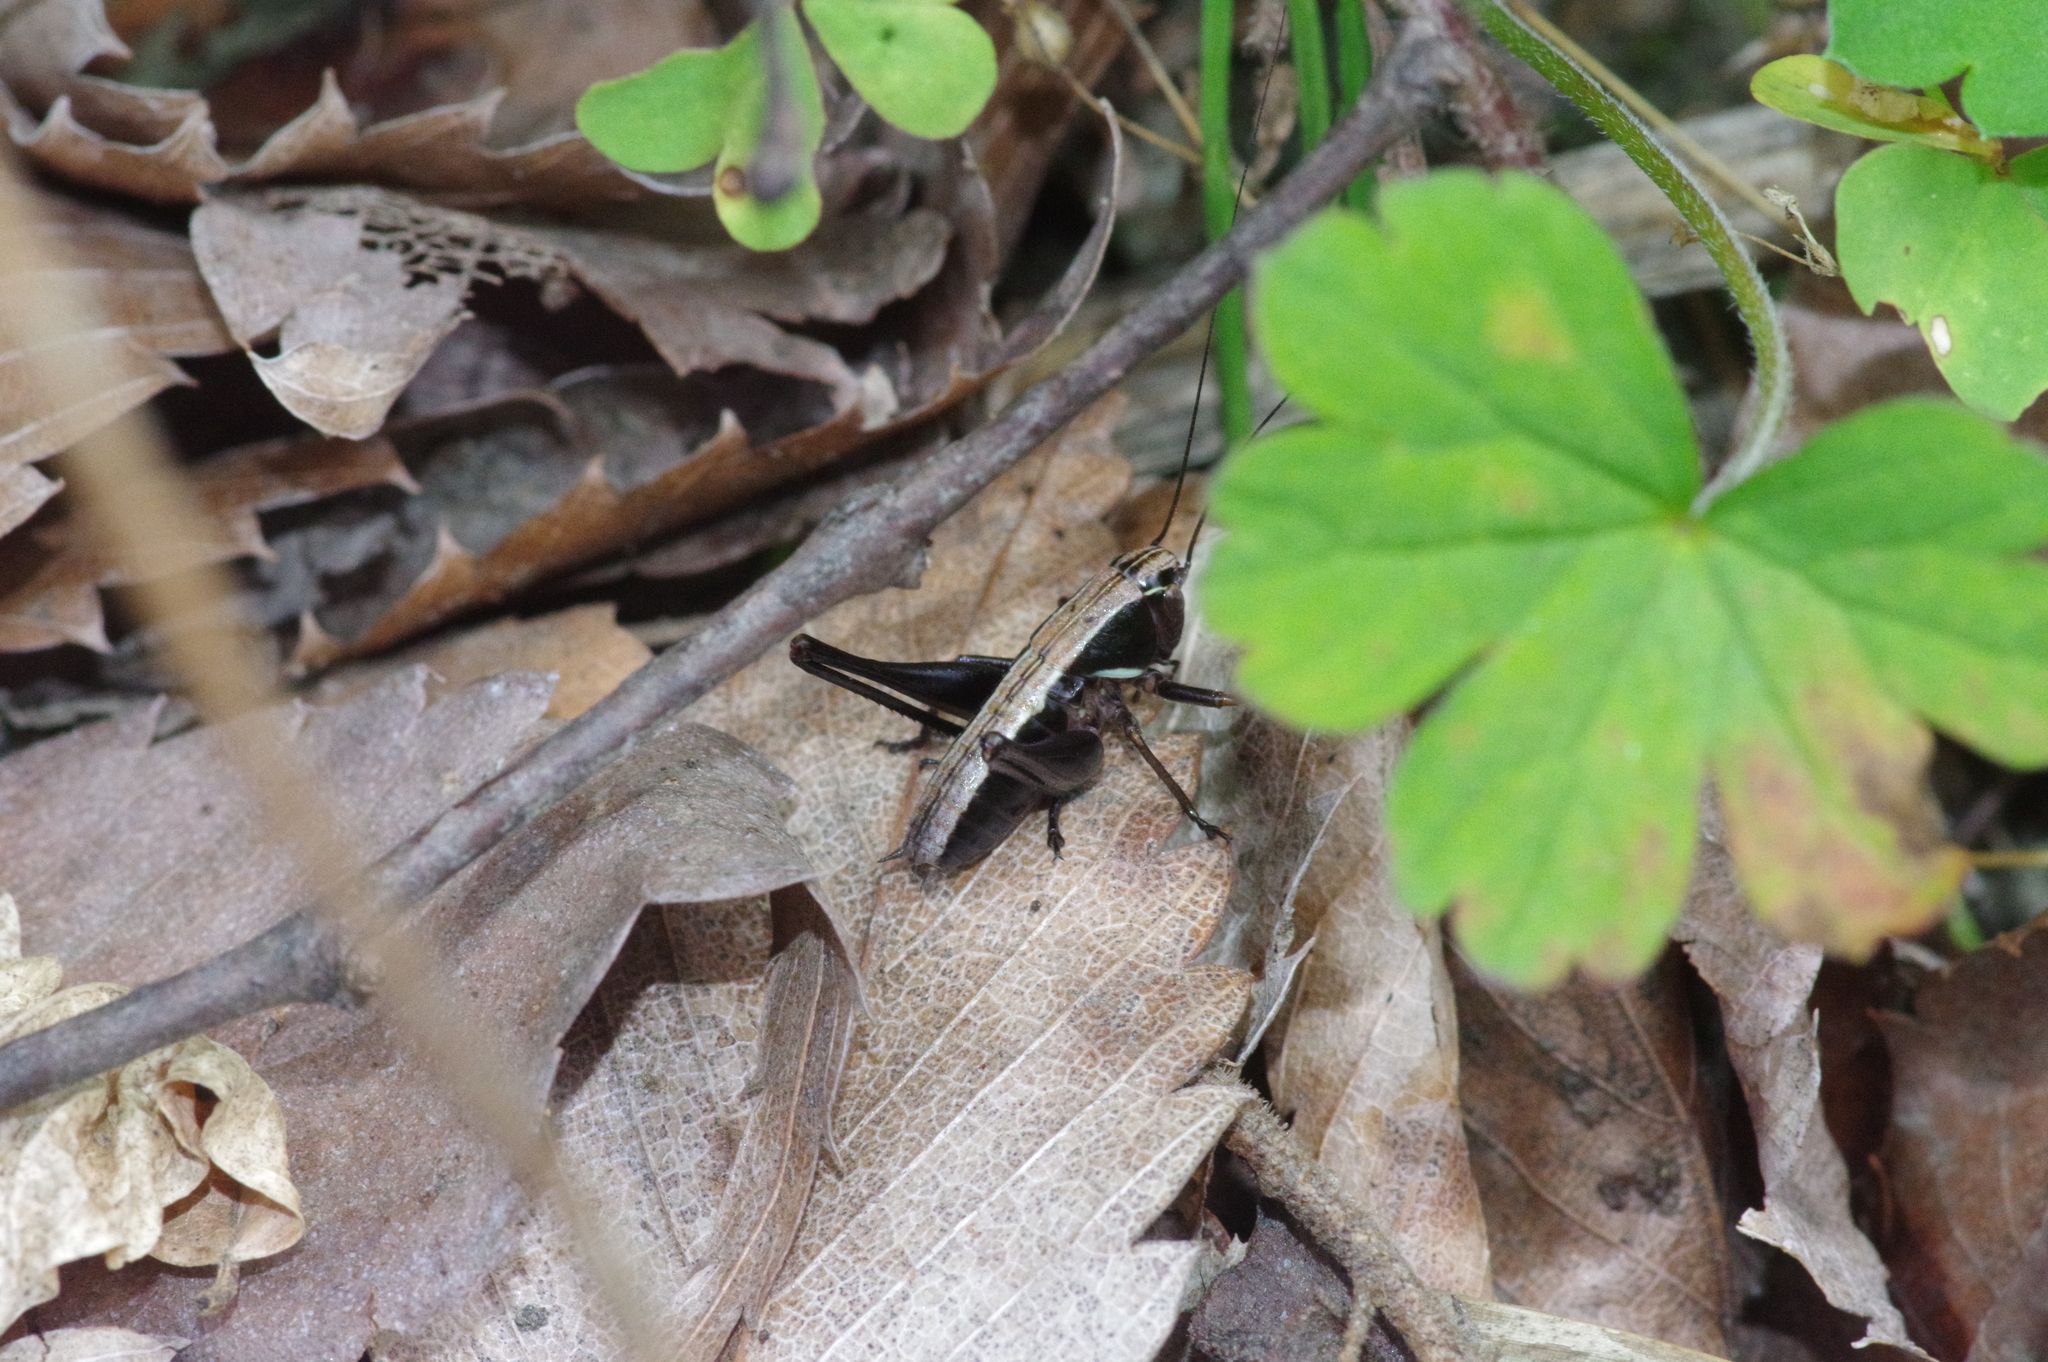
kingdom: Animalia
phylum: Arthropoda
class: Insecta
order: Orthoptera
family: Tettigoniidae
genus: Eobiana
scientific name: Eobiana engelhardti
